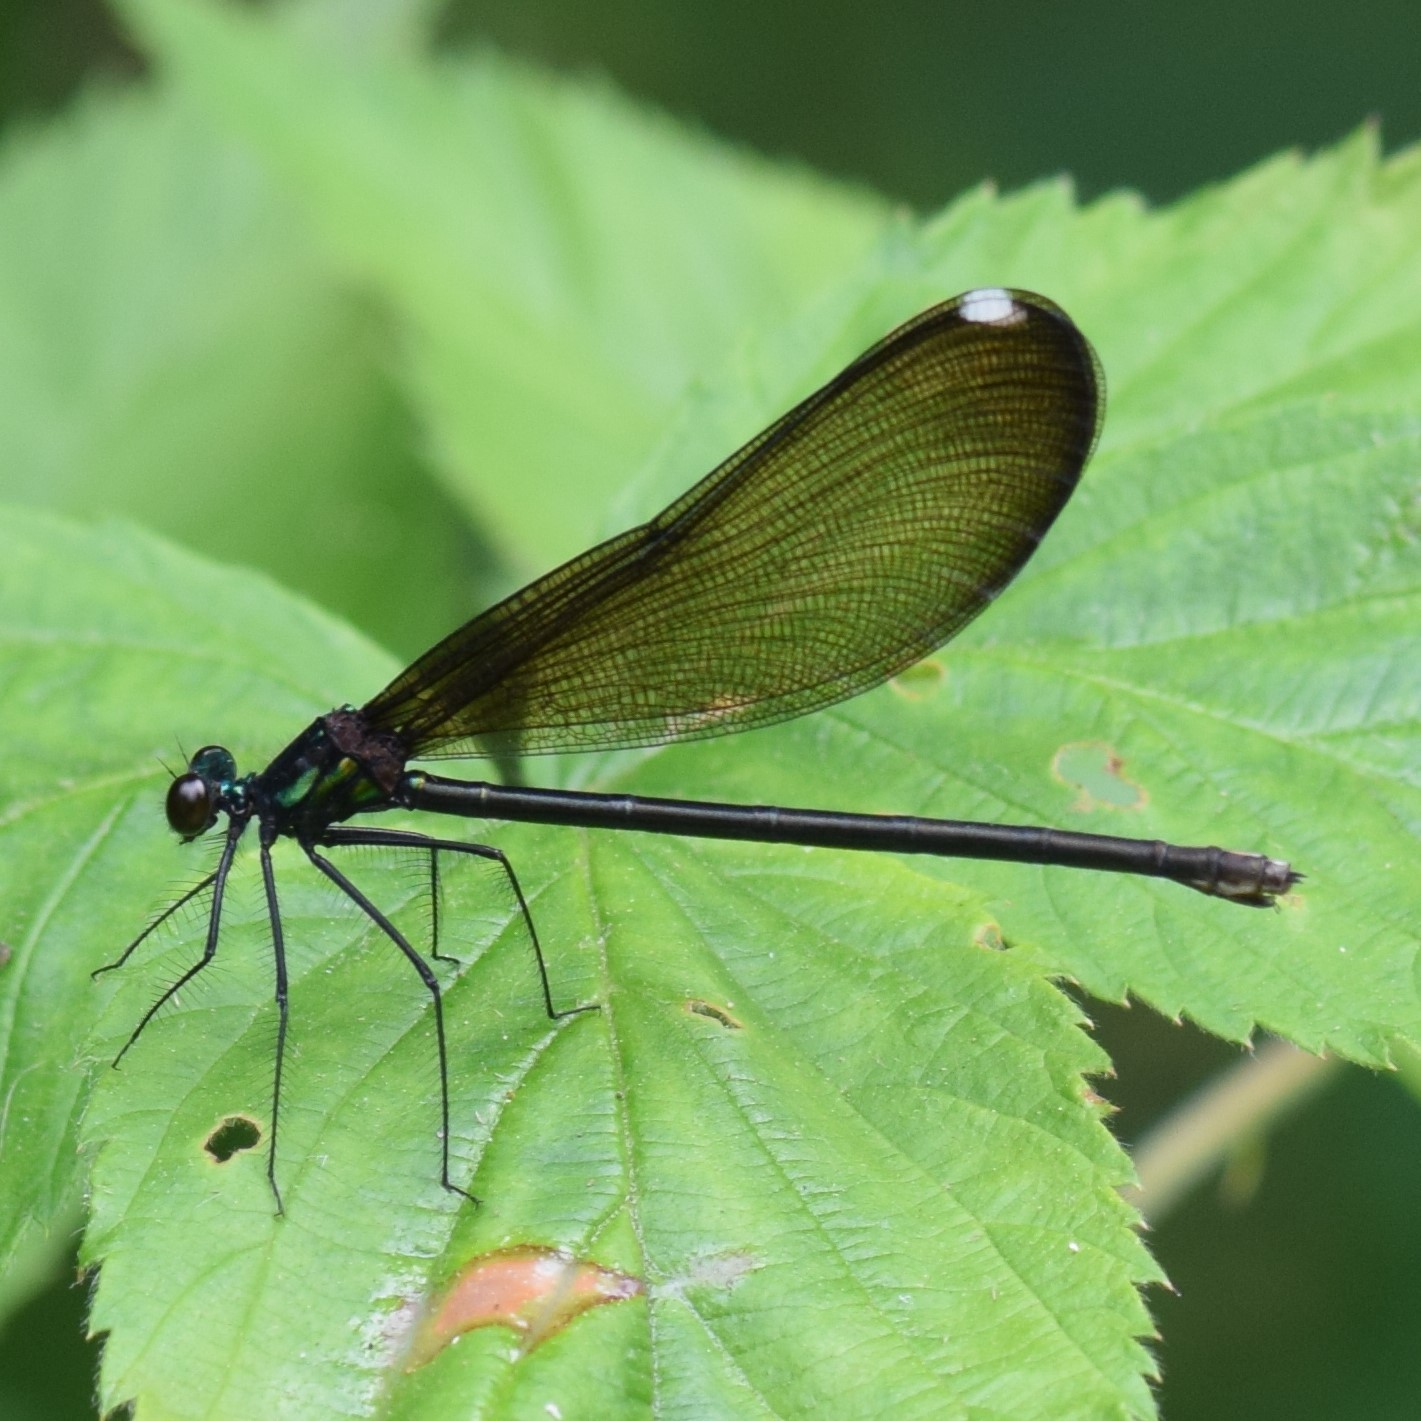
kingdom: Animalia
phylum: Arthropoda
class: Insecta
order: Odonata
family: Calopterygidae
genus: Calopteryx
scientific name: Calopteryx maculata
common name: Ebony jewelwing
